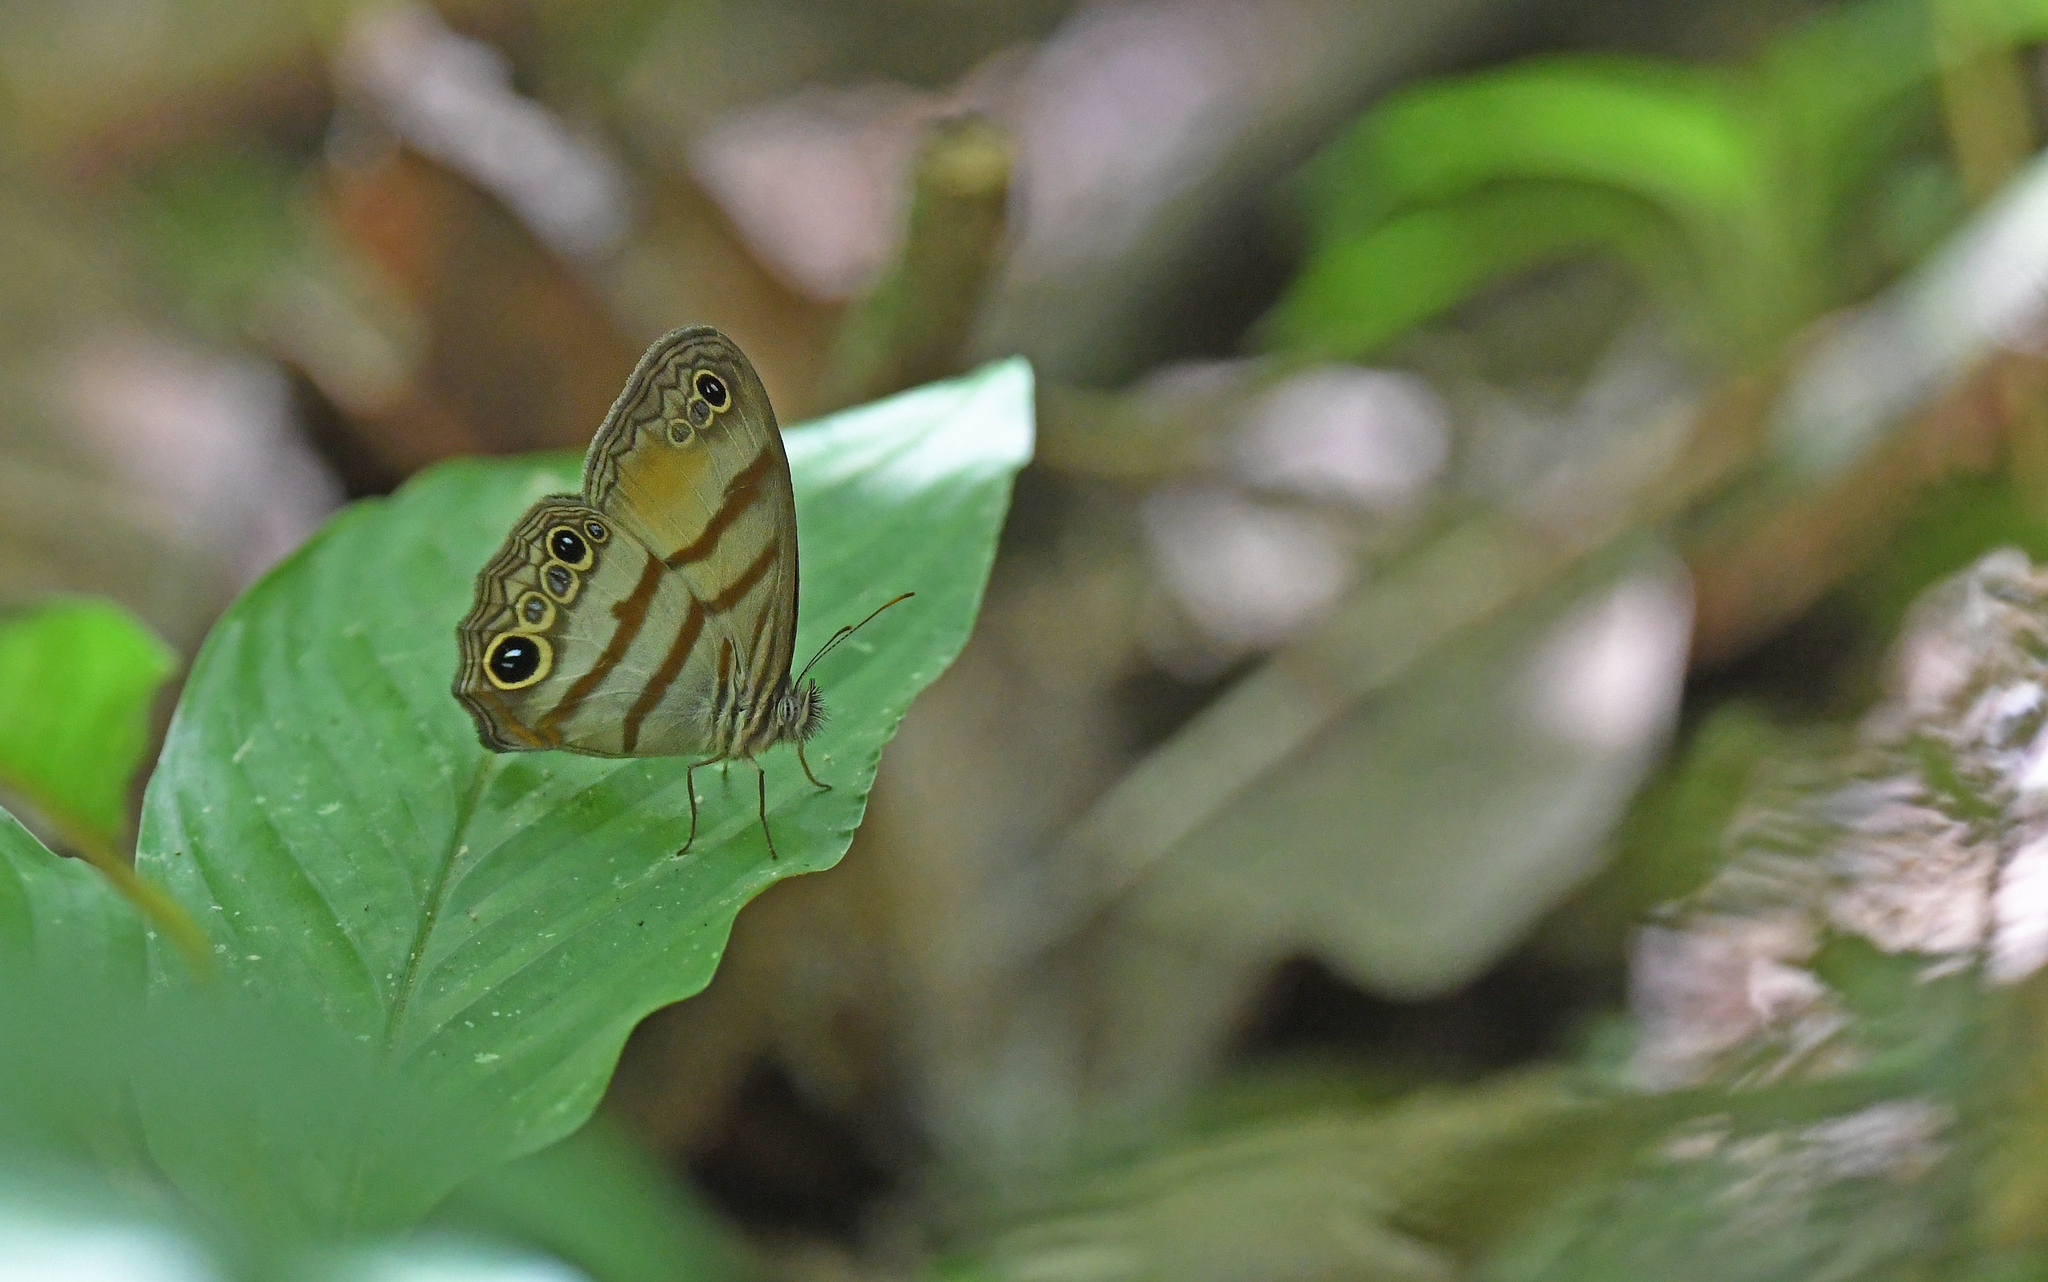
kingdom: Animalia
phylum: Arthropoda
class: Insecta
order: Lepidoptera
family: Nymphalidae
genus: Modica
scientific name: Modica
